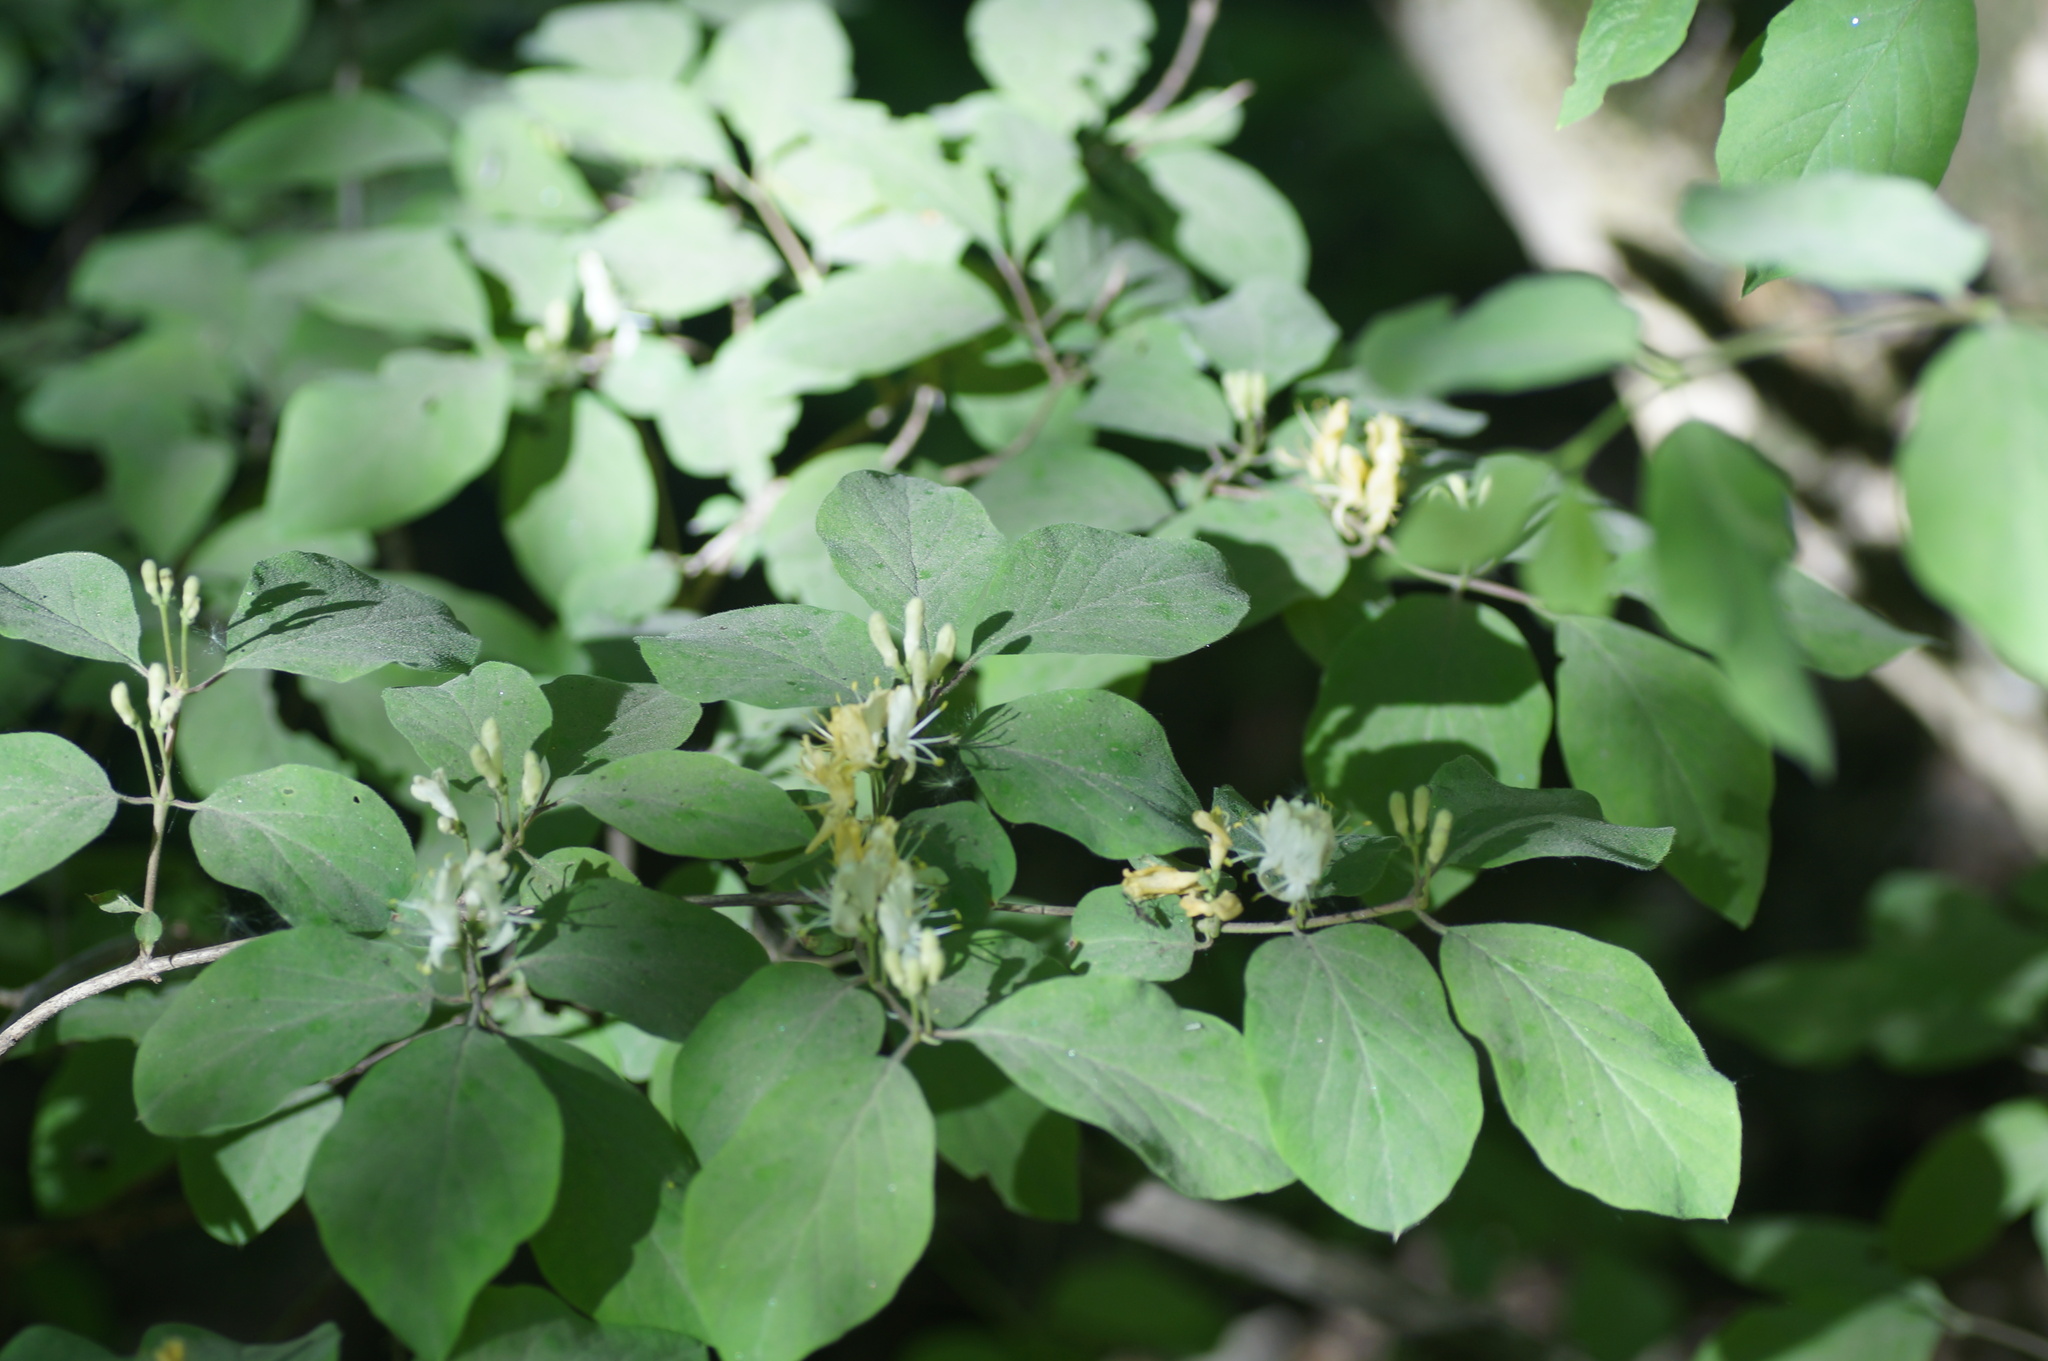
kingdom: Plantae
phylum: Tracheophyta
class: Magnoliopsida
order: Dipsacales
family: Caprifoliaceae
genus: Lonicera
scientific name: Lonicera xylosteum
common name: Fly honeysuckle
